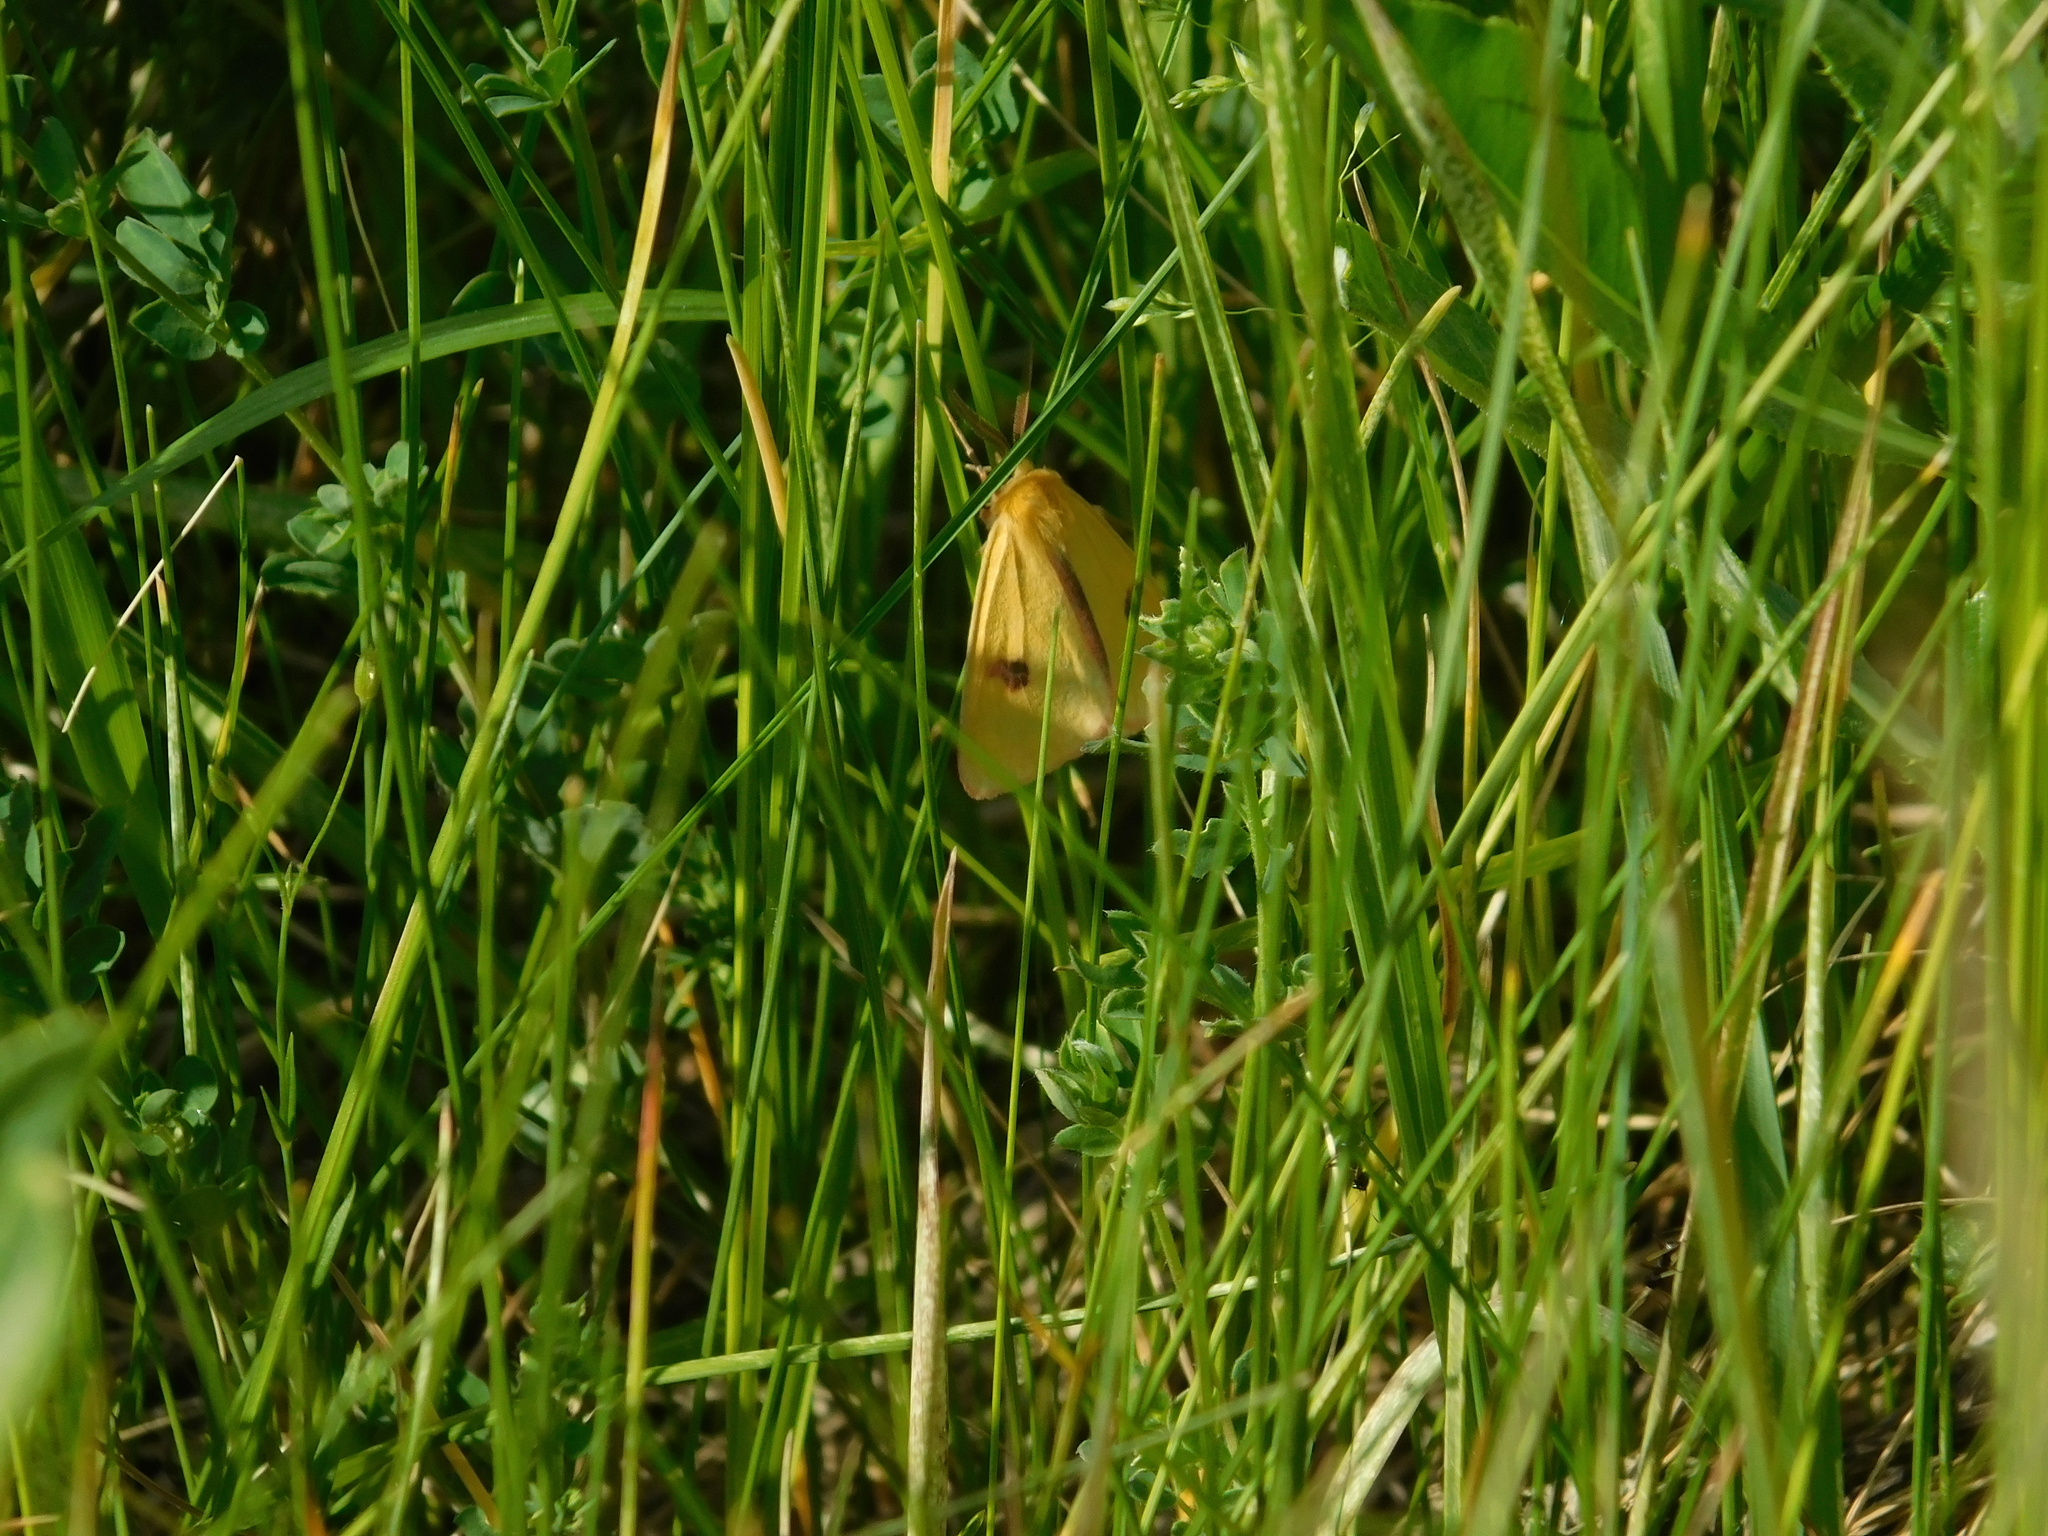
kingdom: Animalia
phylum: Arthropoda
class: Insecta
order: Lepidoptera
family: Erebidae
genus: Diacrisia
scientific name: Diacrisia sannio
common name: Clouded buff
